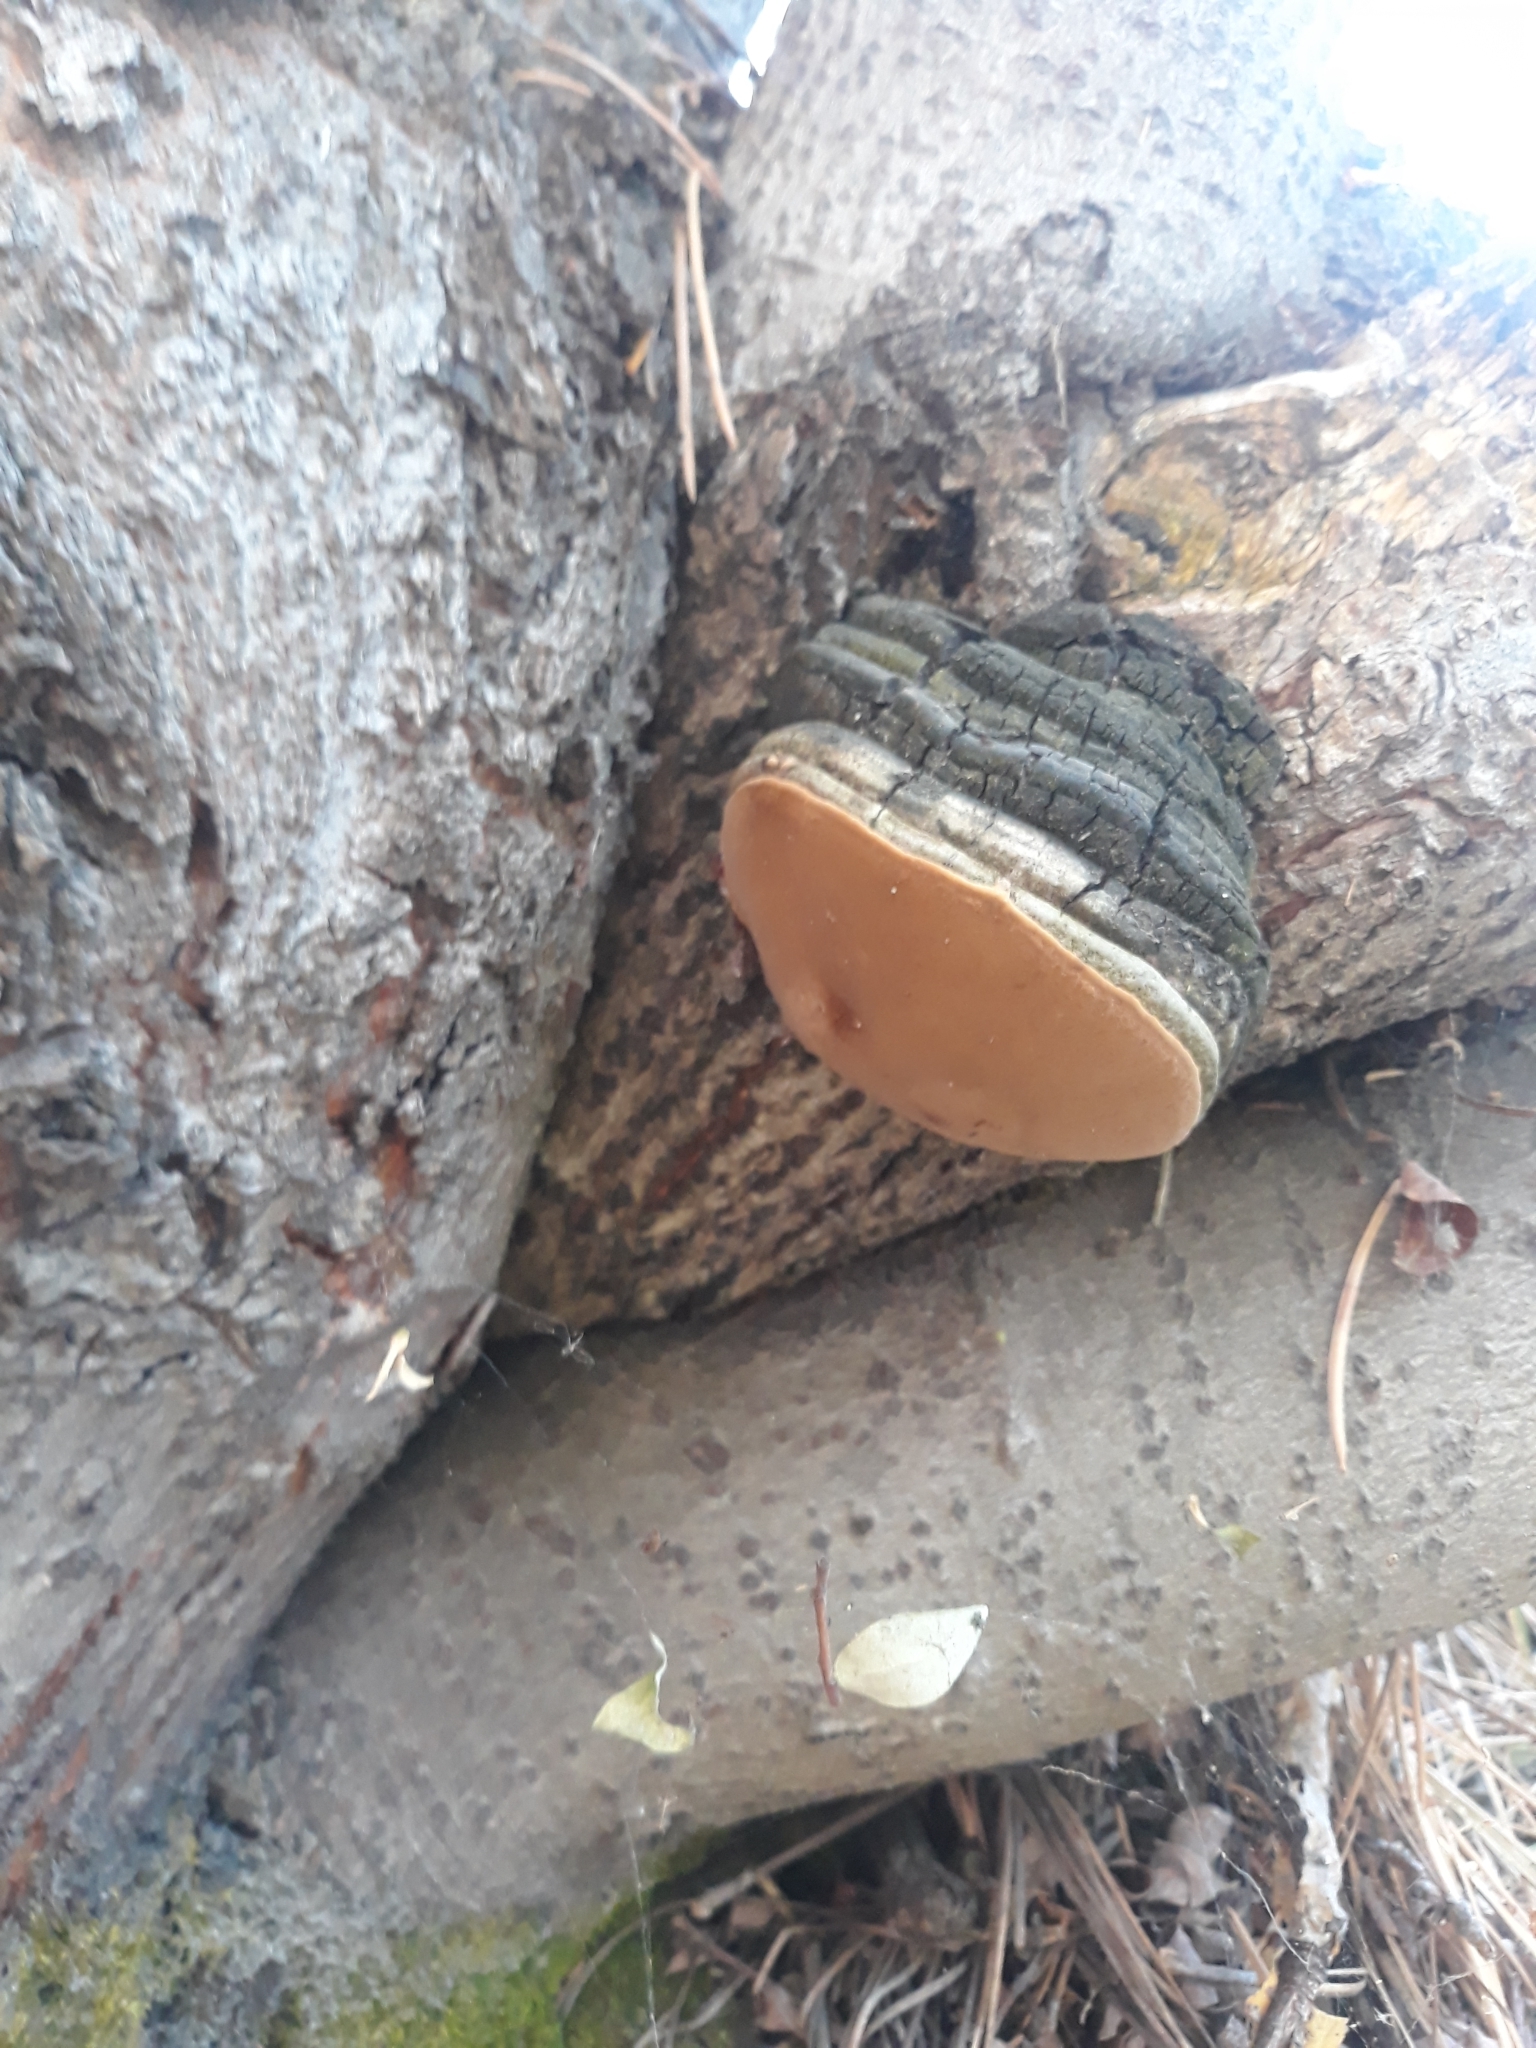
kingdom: Fungi
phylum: Basidiomycota
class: Agaricomycetes
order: Hymenochaetales
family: Hymenochaetaceae
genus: Phellinus
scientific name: Phellinus igniarius
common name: Willow bracket
